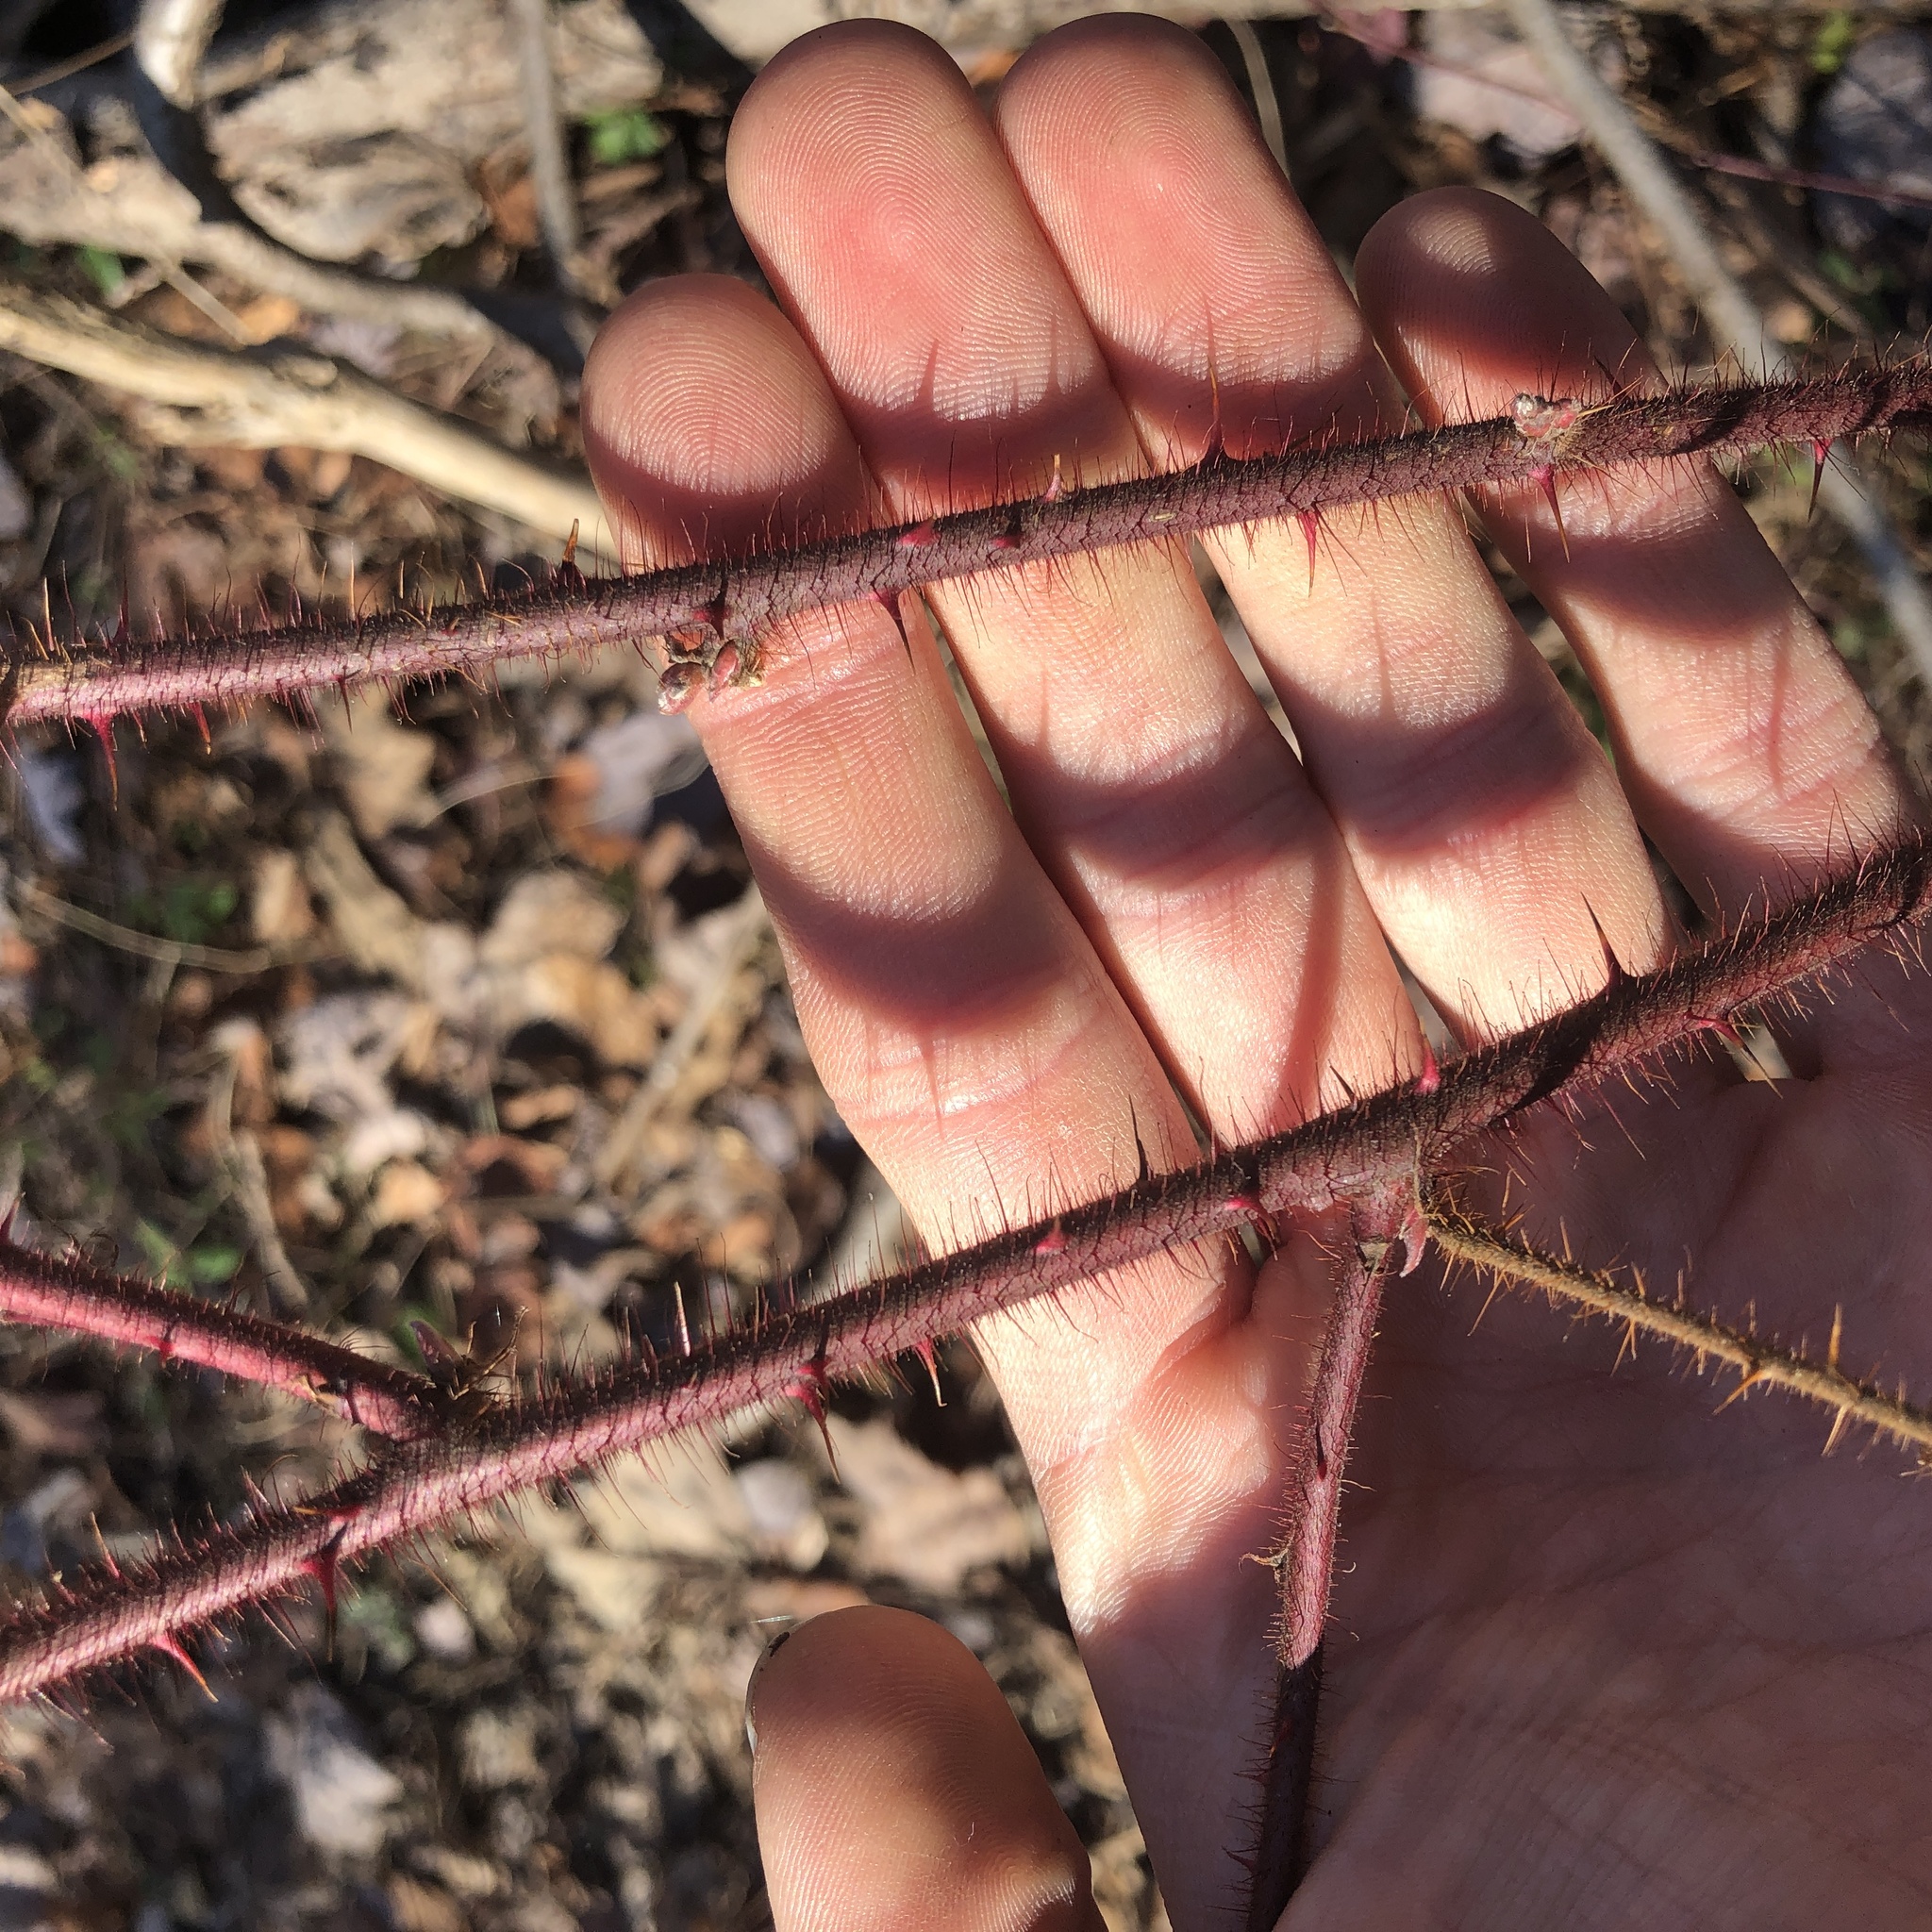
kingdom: Plantae
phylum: Tracheophyta
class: Magnoliopsida
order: Rosales
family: Rosaceae
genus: Rubus
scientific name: Rubus phoenicolasius
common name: Japanese wineberry
